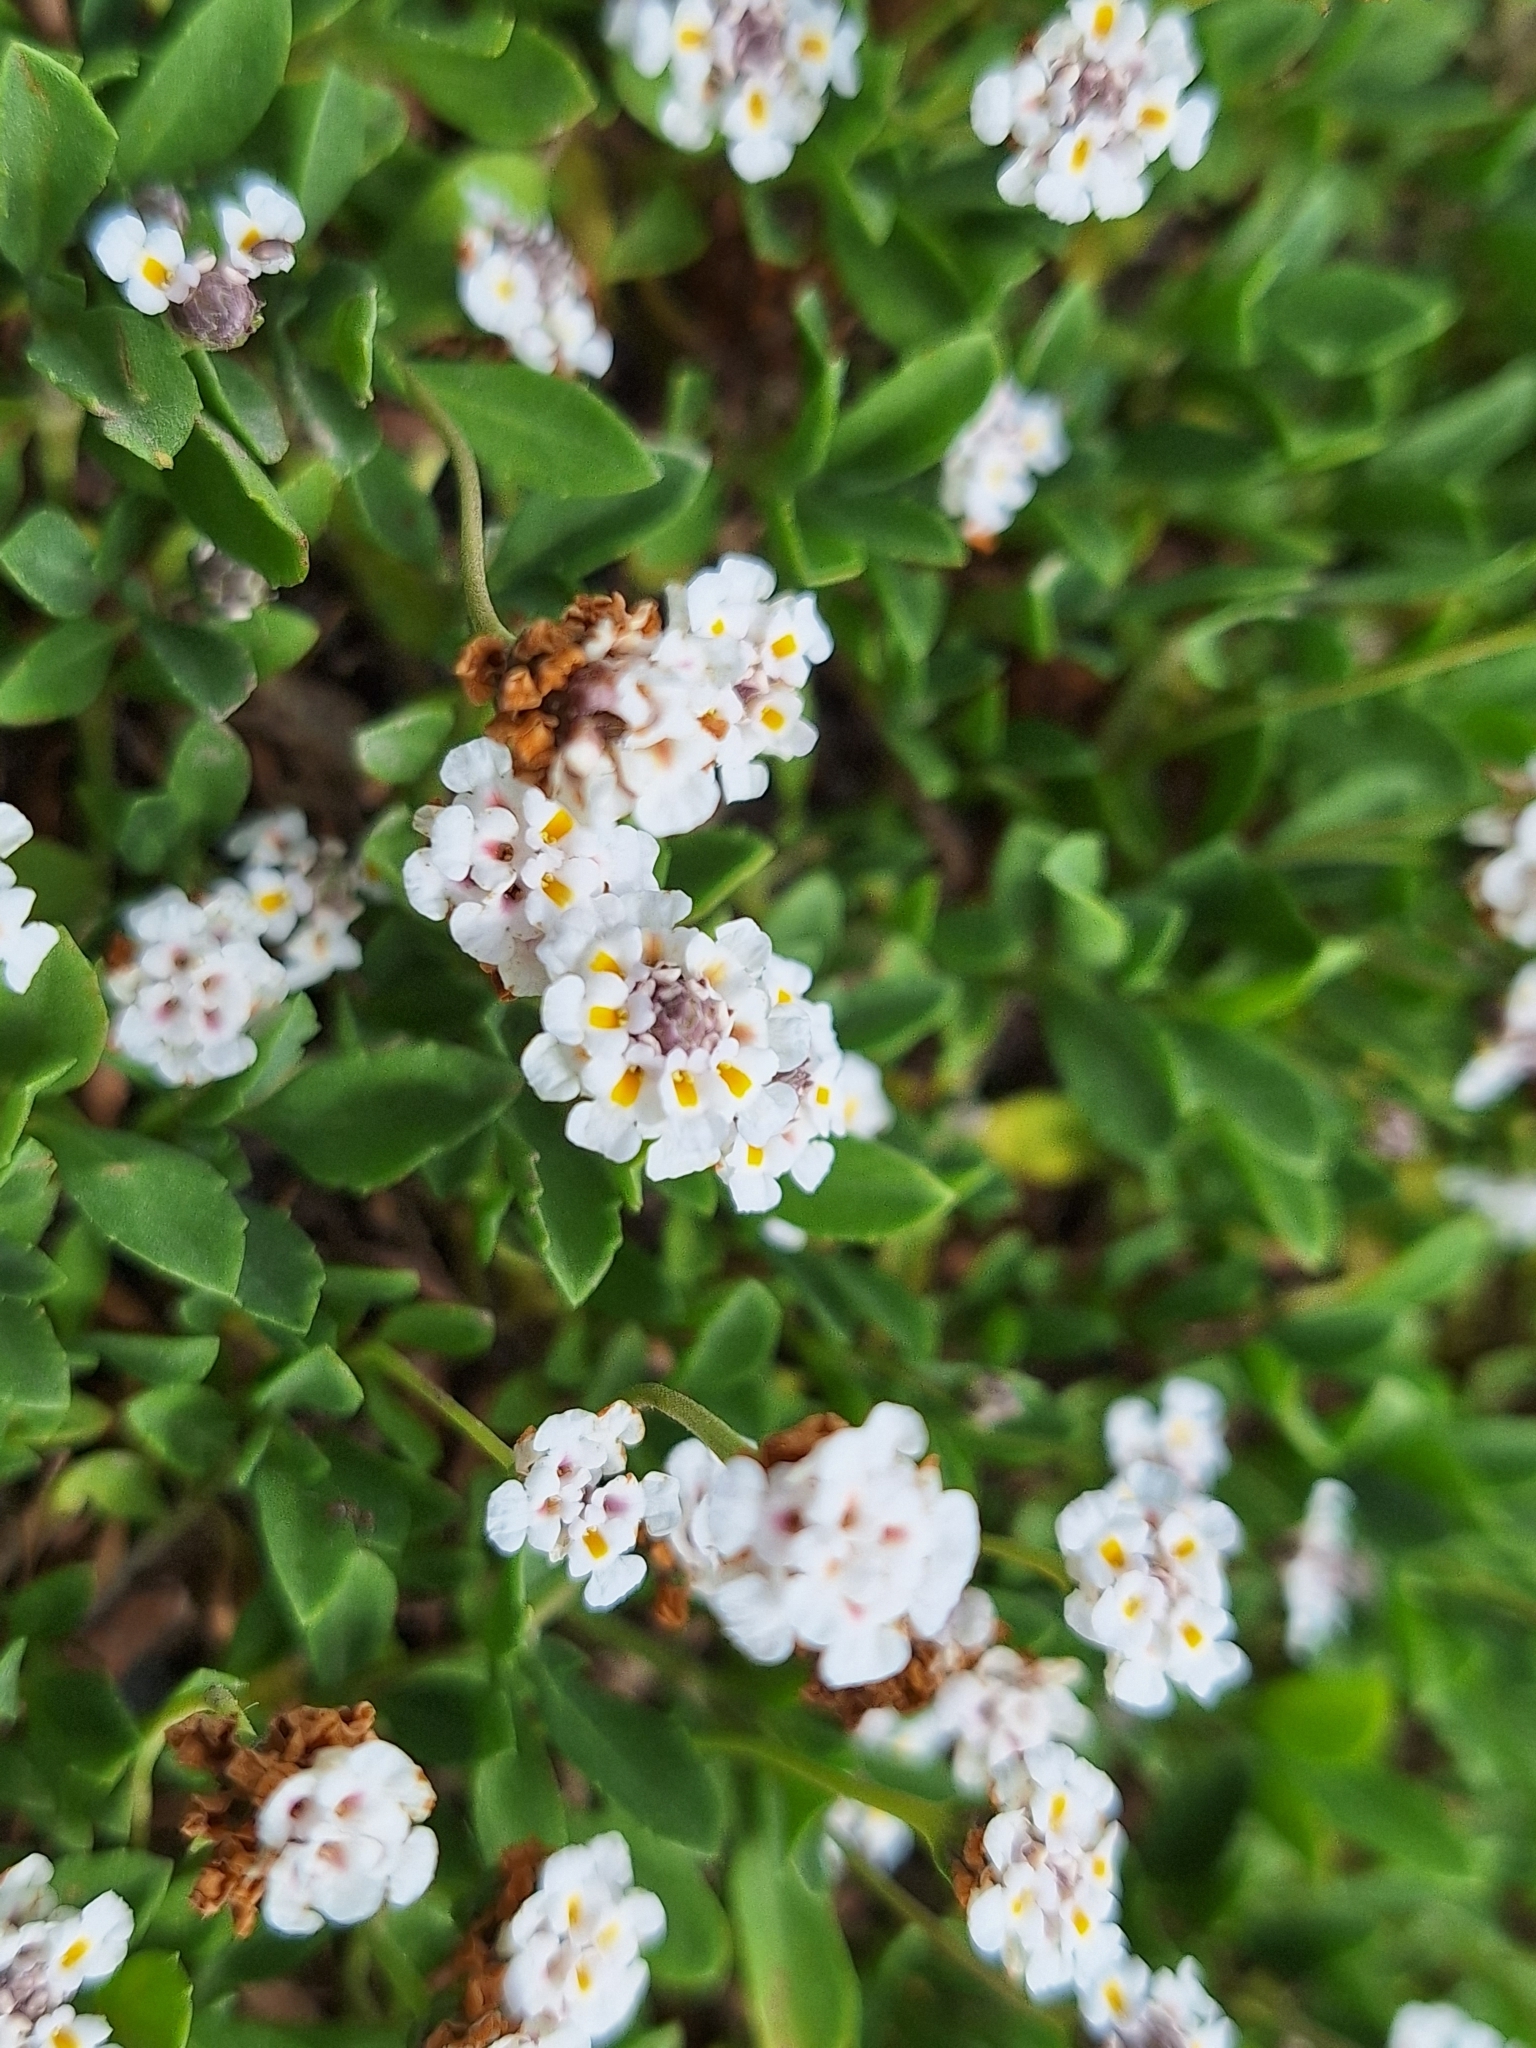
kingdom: Plantae
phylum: Tracheophyta
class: Magnoliopsida
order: Lamiales
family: Verbenaceae
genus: Phyla
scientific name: Phyla nodiflora
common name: Frogfruit
